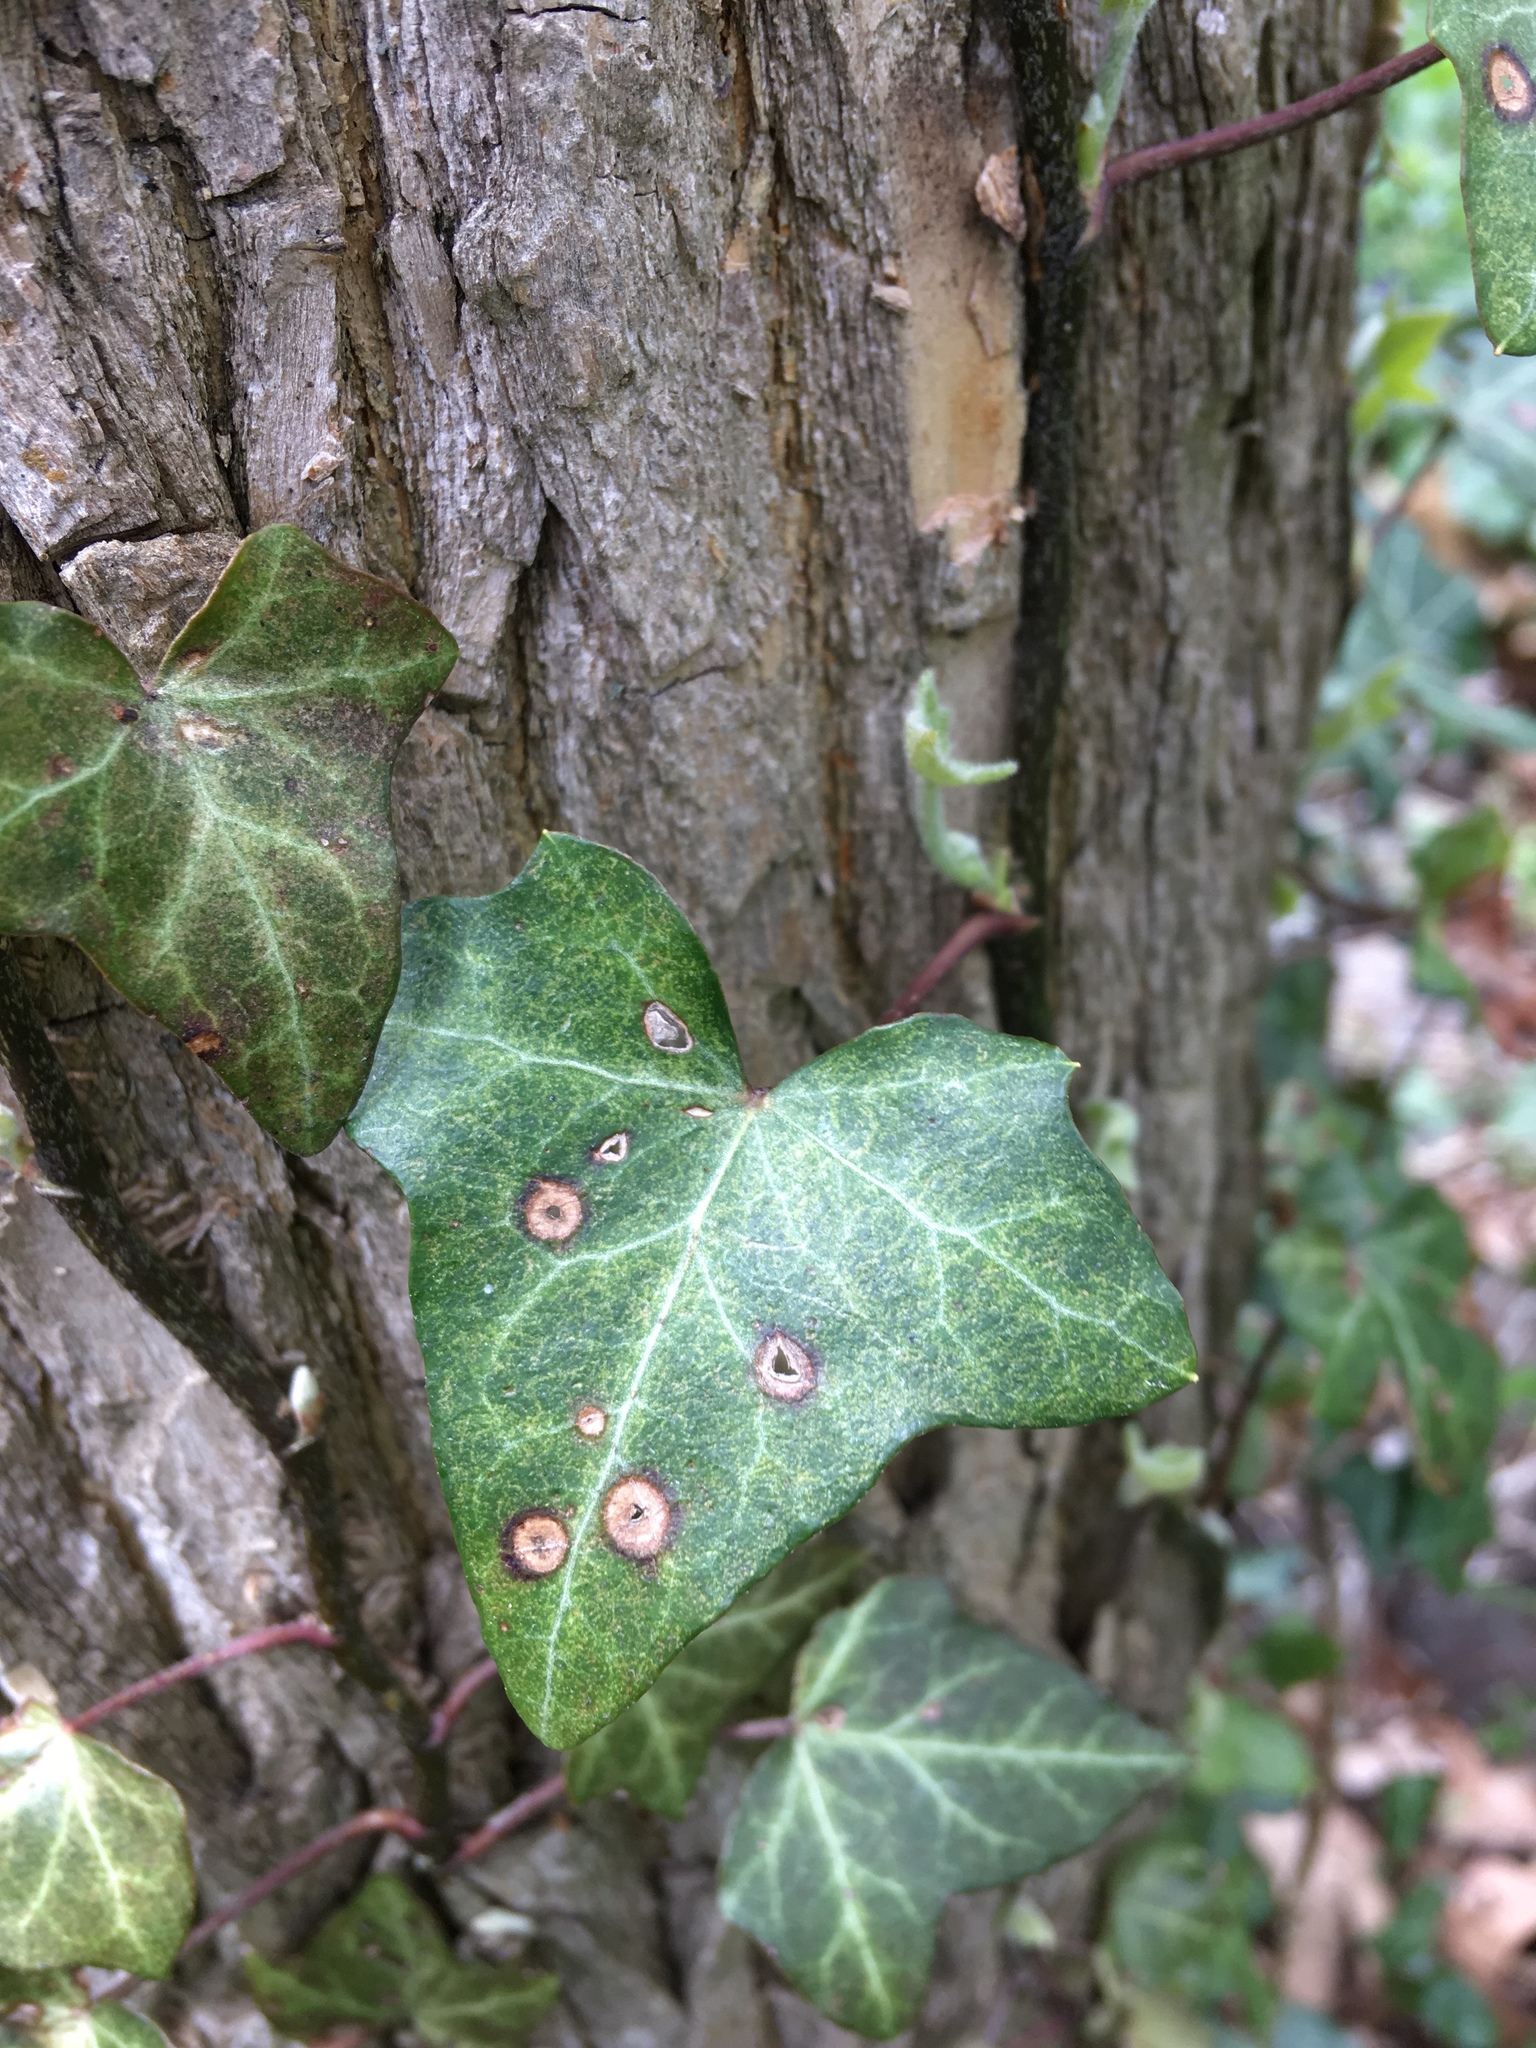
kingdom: Plantae
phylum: Tracheophyta
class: Magnoliopsida
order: Apiales
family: Araliaceae
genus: Hedera
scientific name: Hedera helix
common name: Ivy
